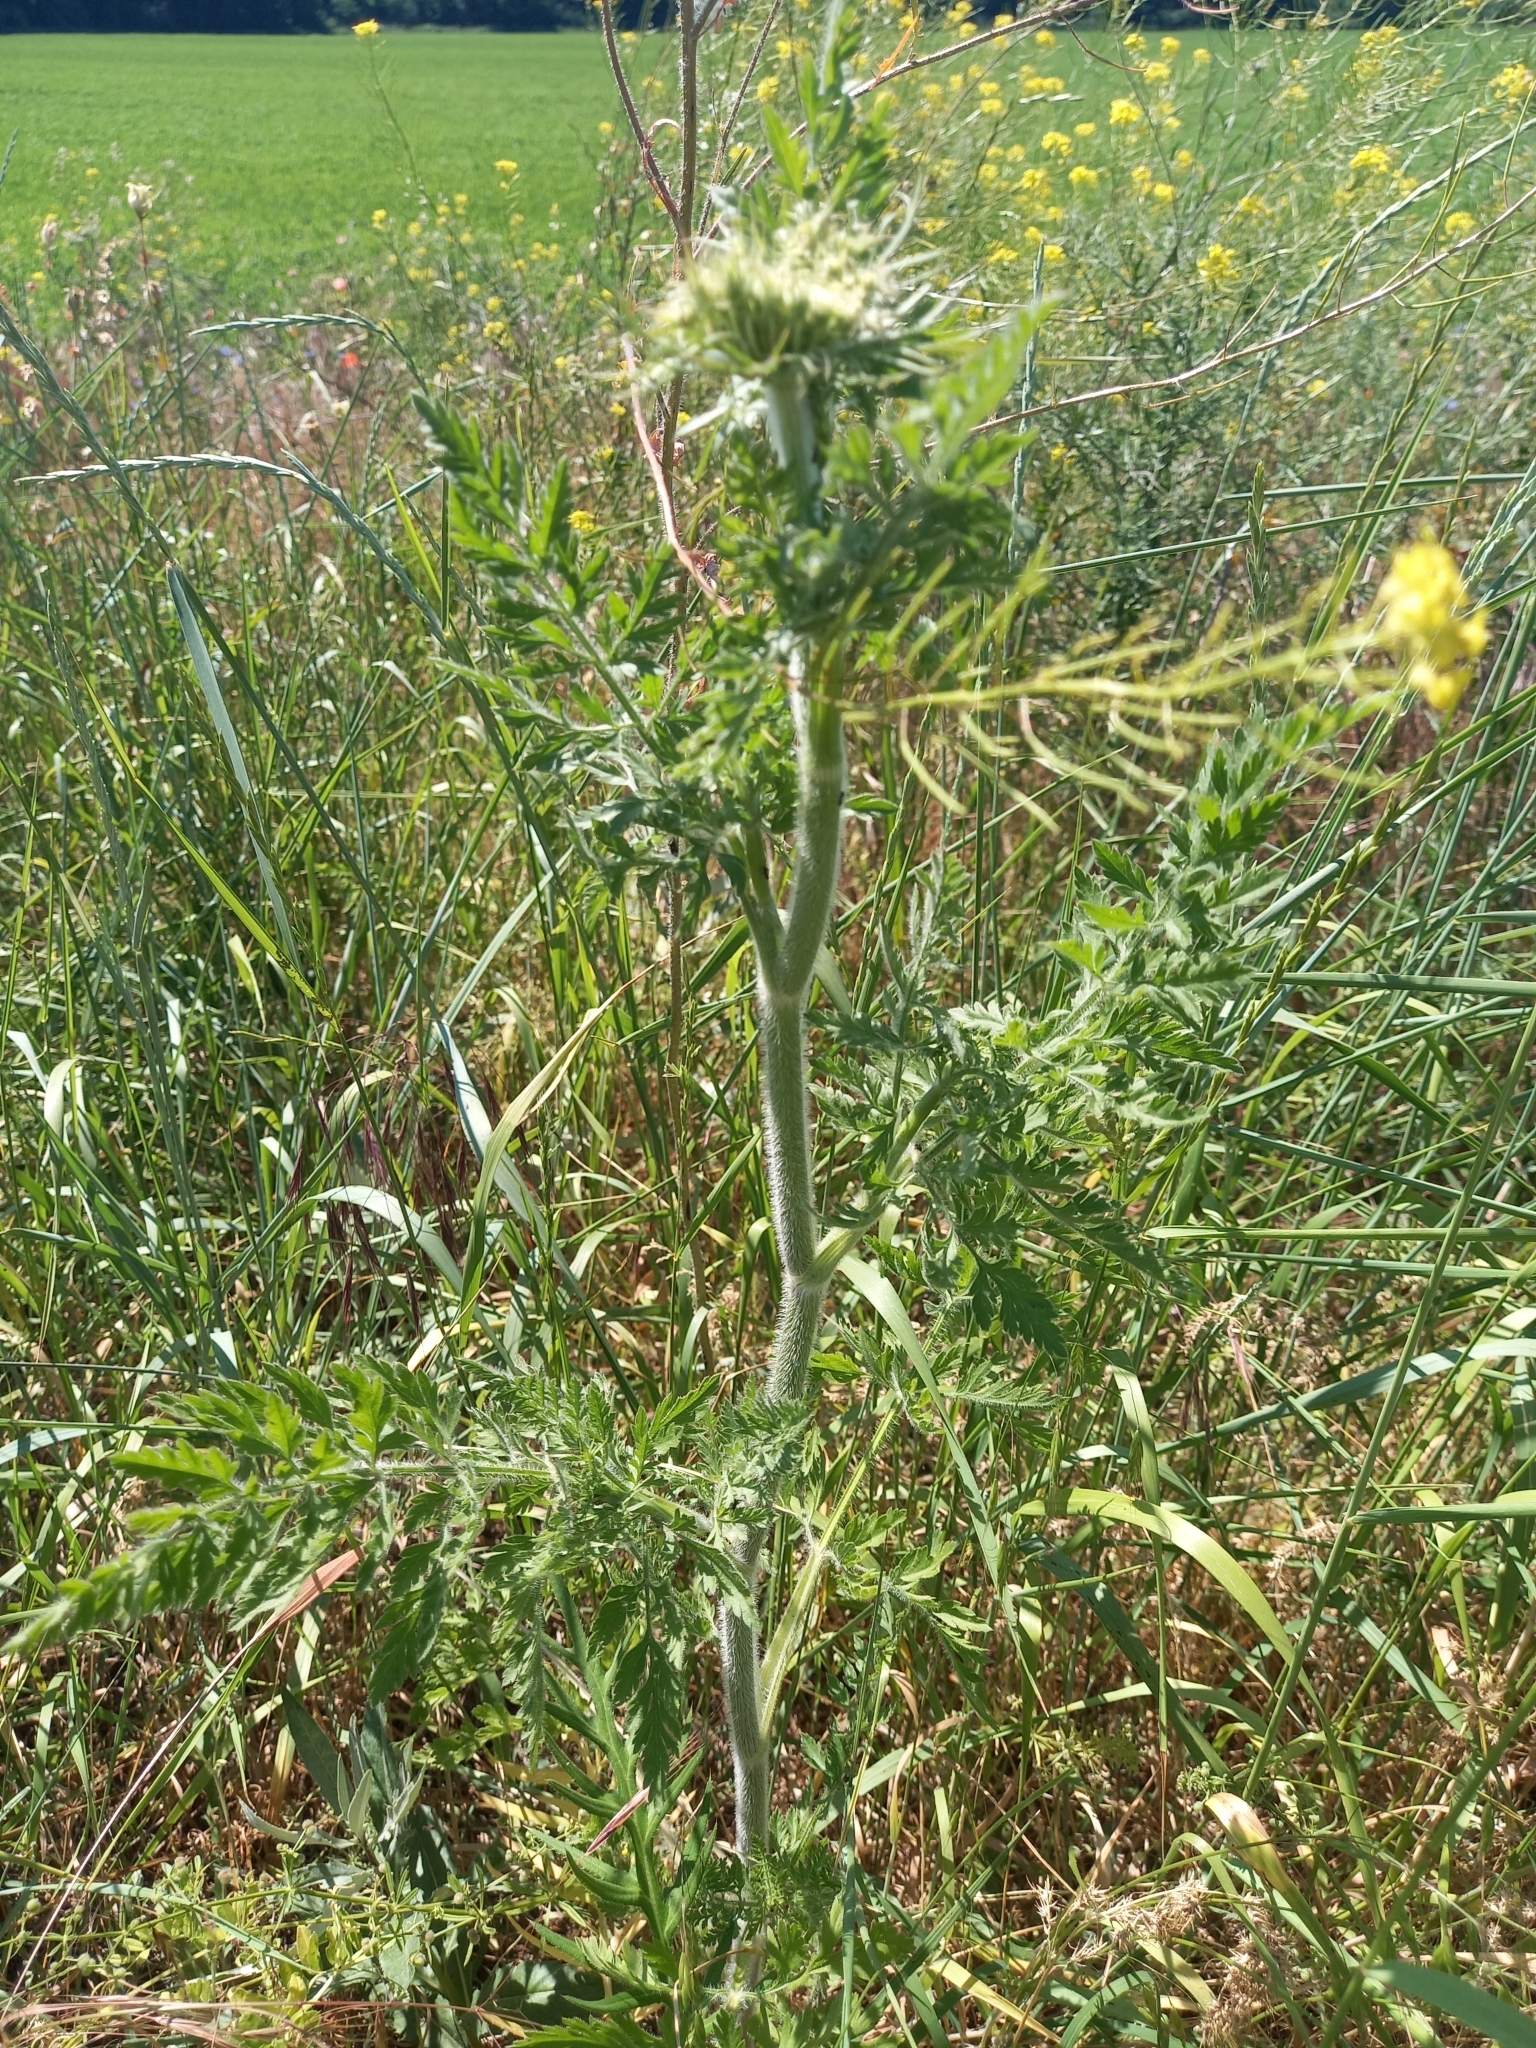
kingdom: Plantae
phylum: Tracheophyta
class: Magnoliopsida
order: Apiales
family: Apiaceae
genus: Daucus
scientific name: Daucus carota
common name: Wild carrot
